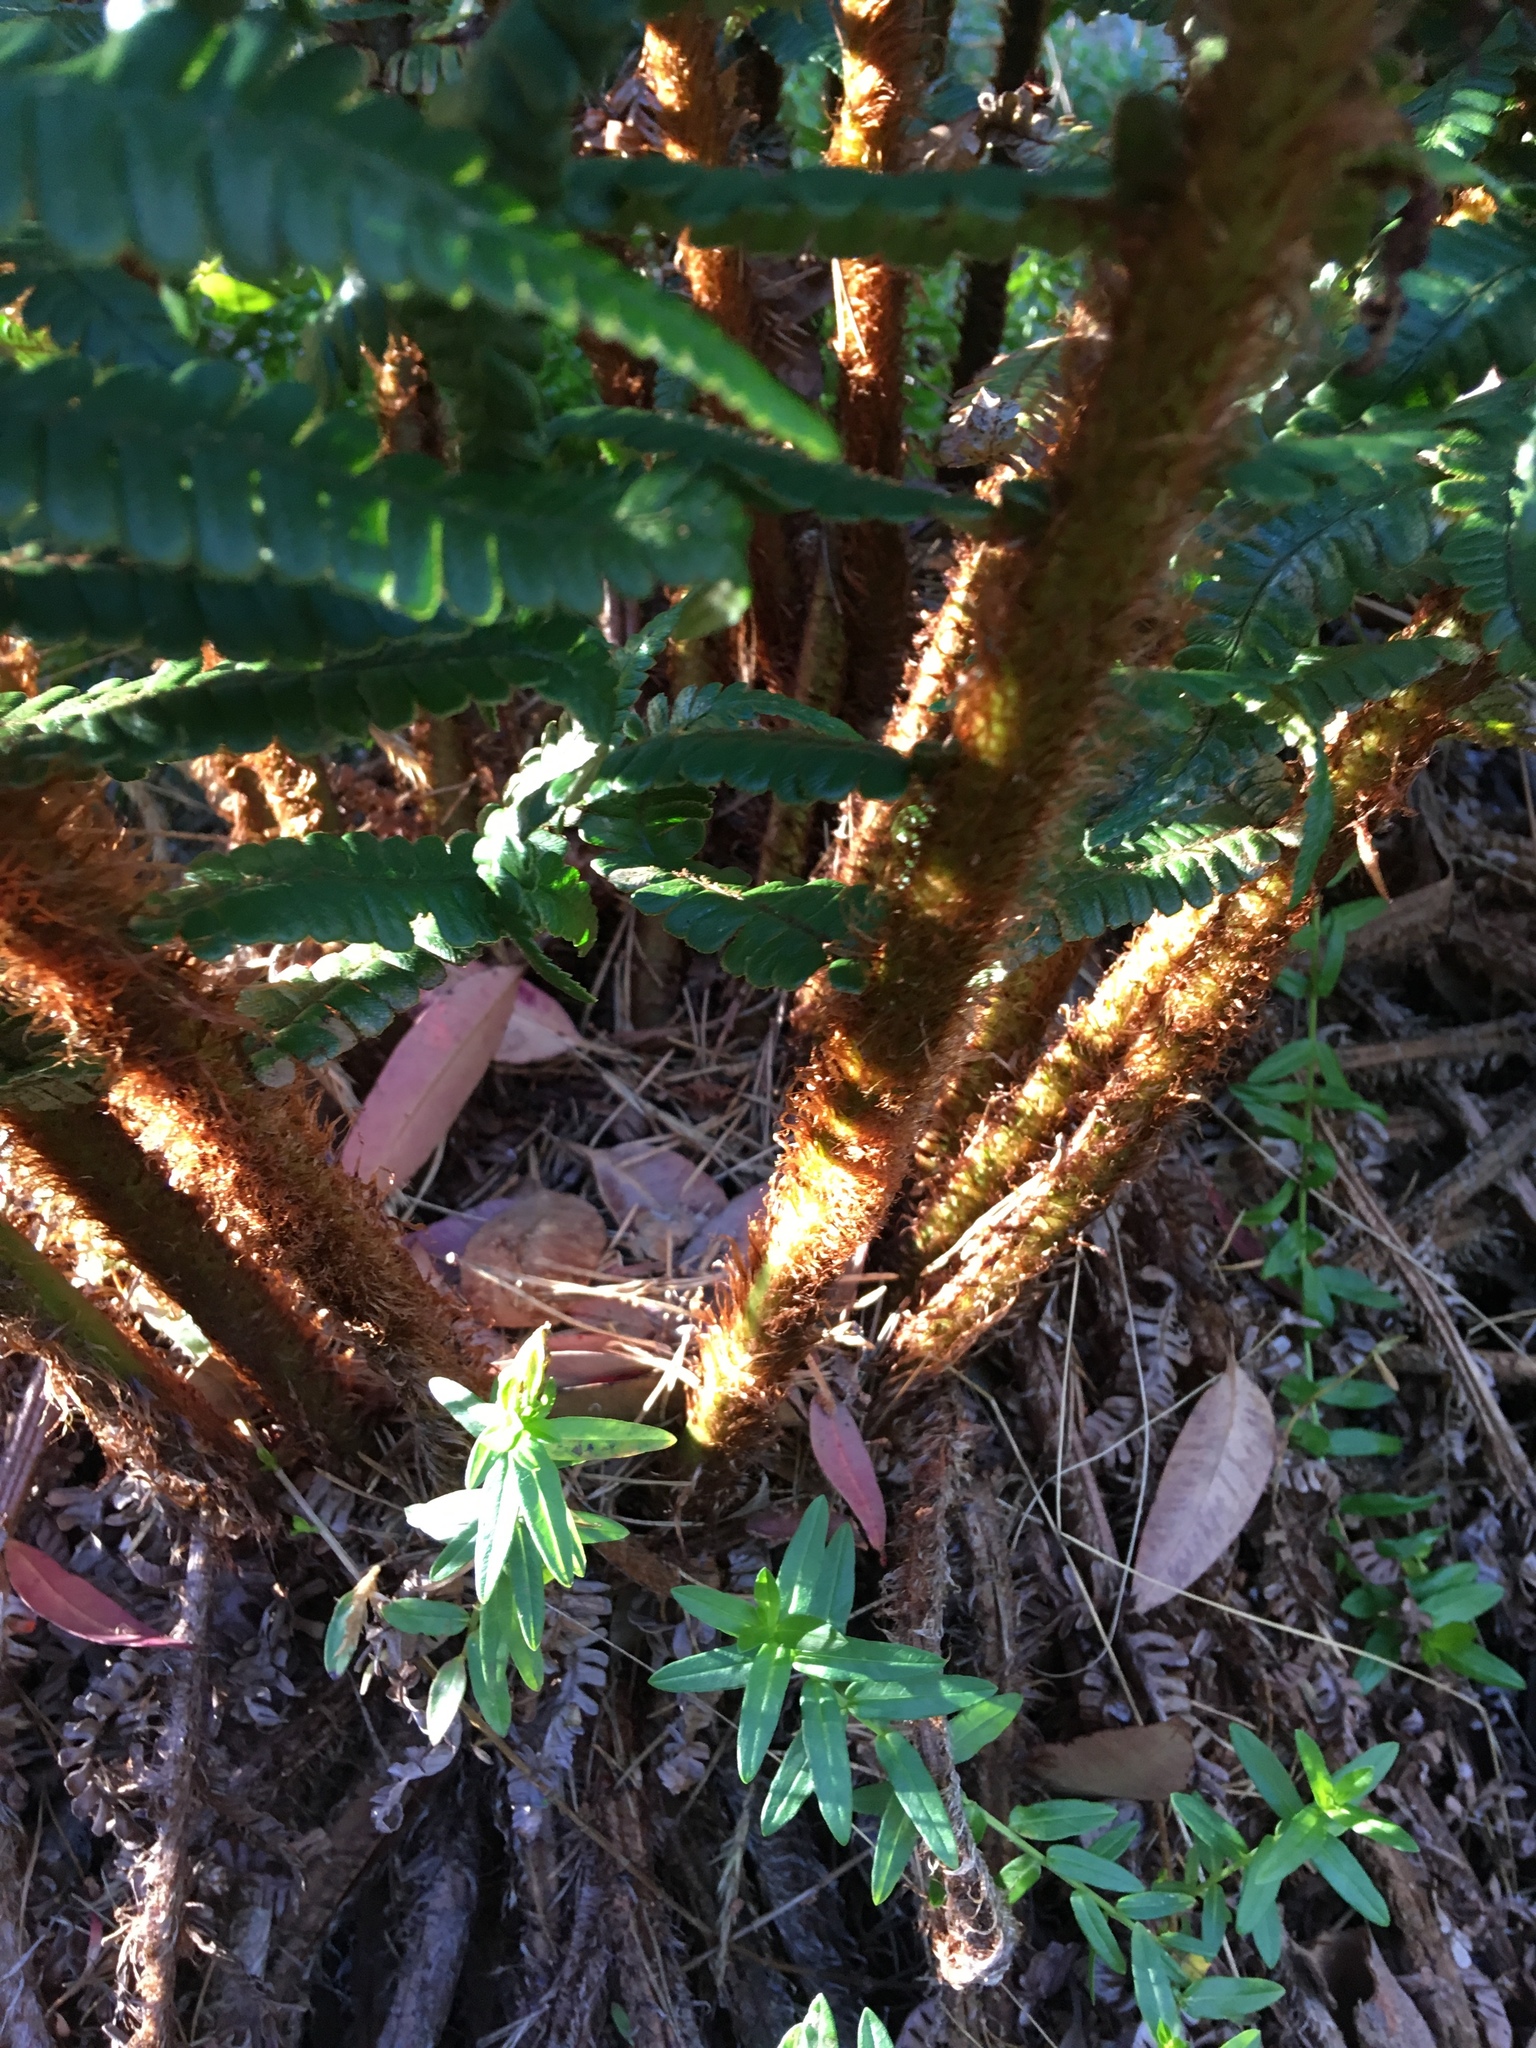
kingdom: Plantae
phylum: Tracheophyta
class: Polypodiopsida
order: Polypodiales
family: Dryopteridaceae
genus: Dryopteris
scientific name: Dryopteris wallichiana
